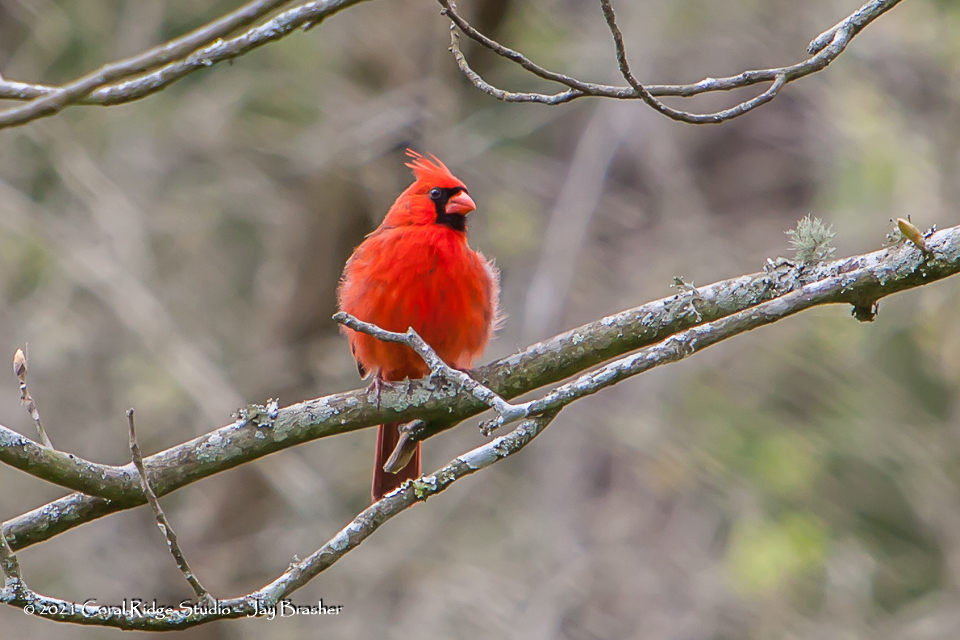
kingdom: Animalia
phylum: Chordata
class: Aves
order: Passeriformes
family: Cardinalidae
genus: Cardinalis
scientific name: Cardinalis cardinalis
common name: Northern cardinal
